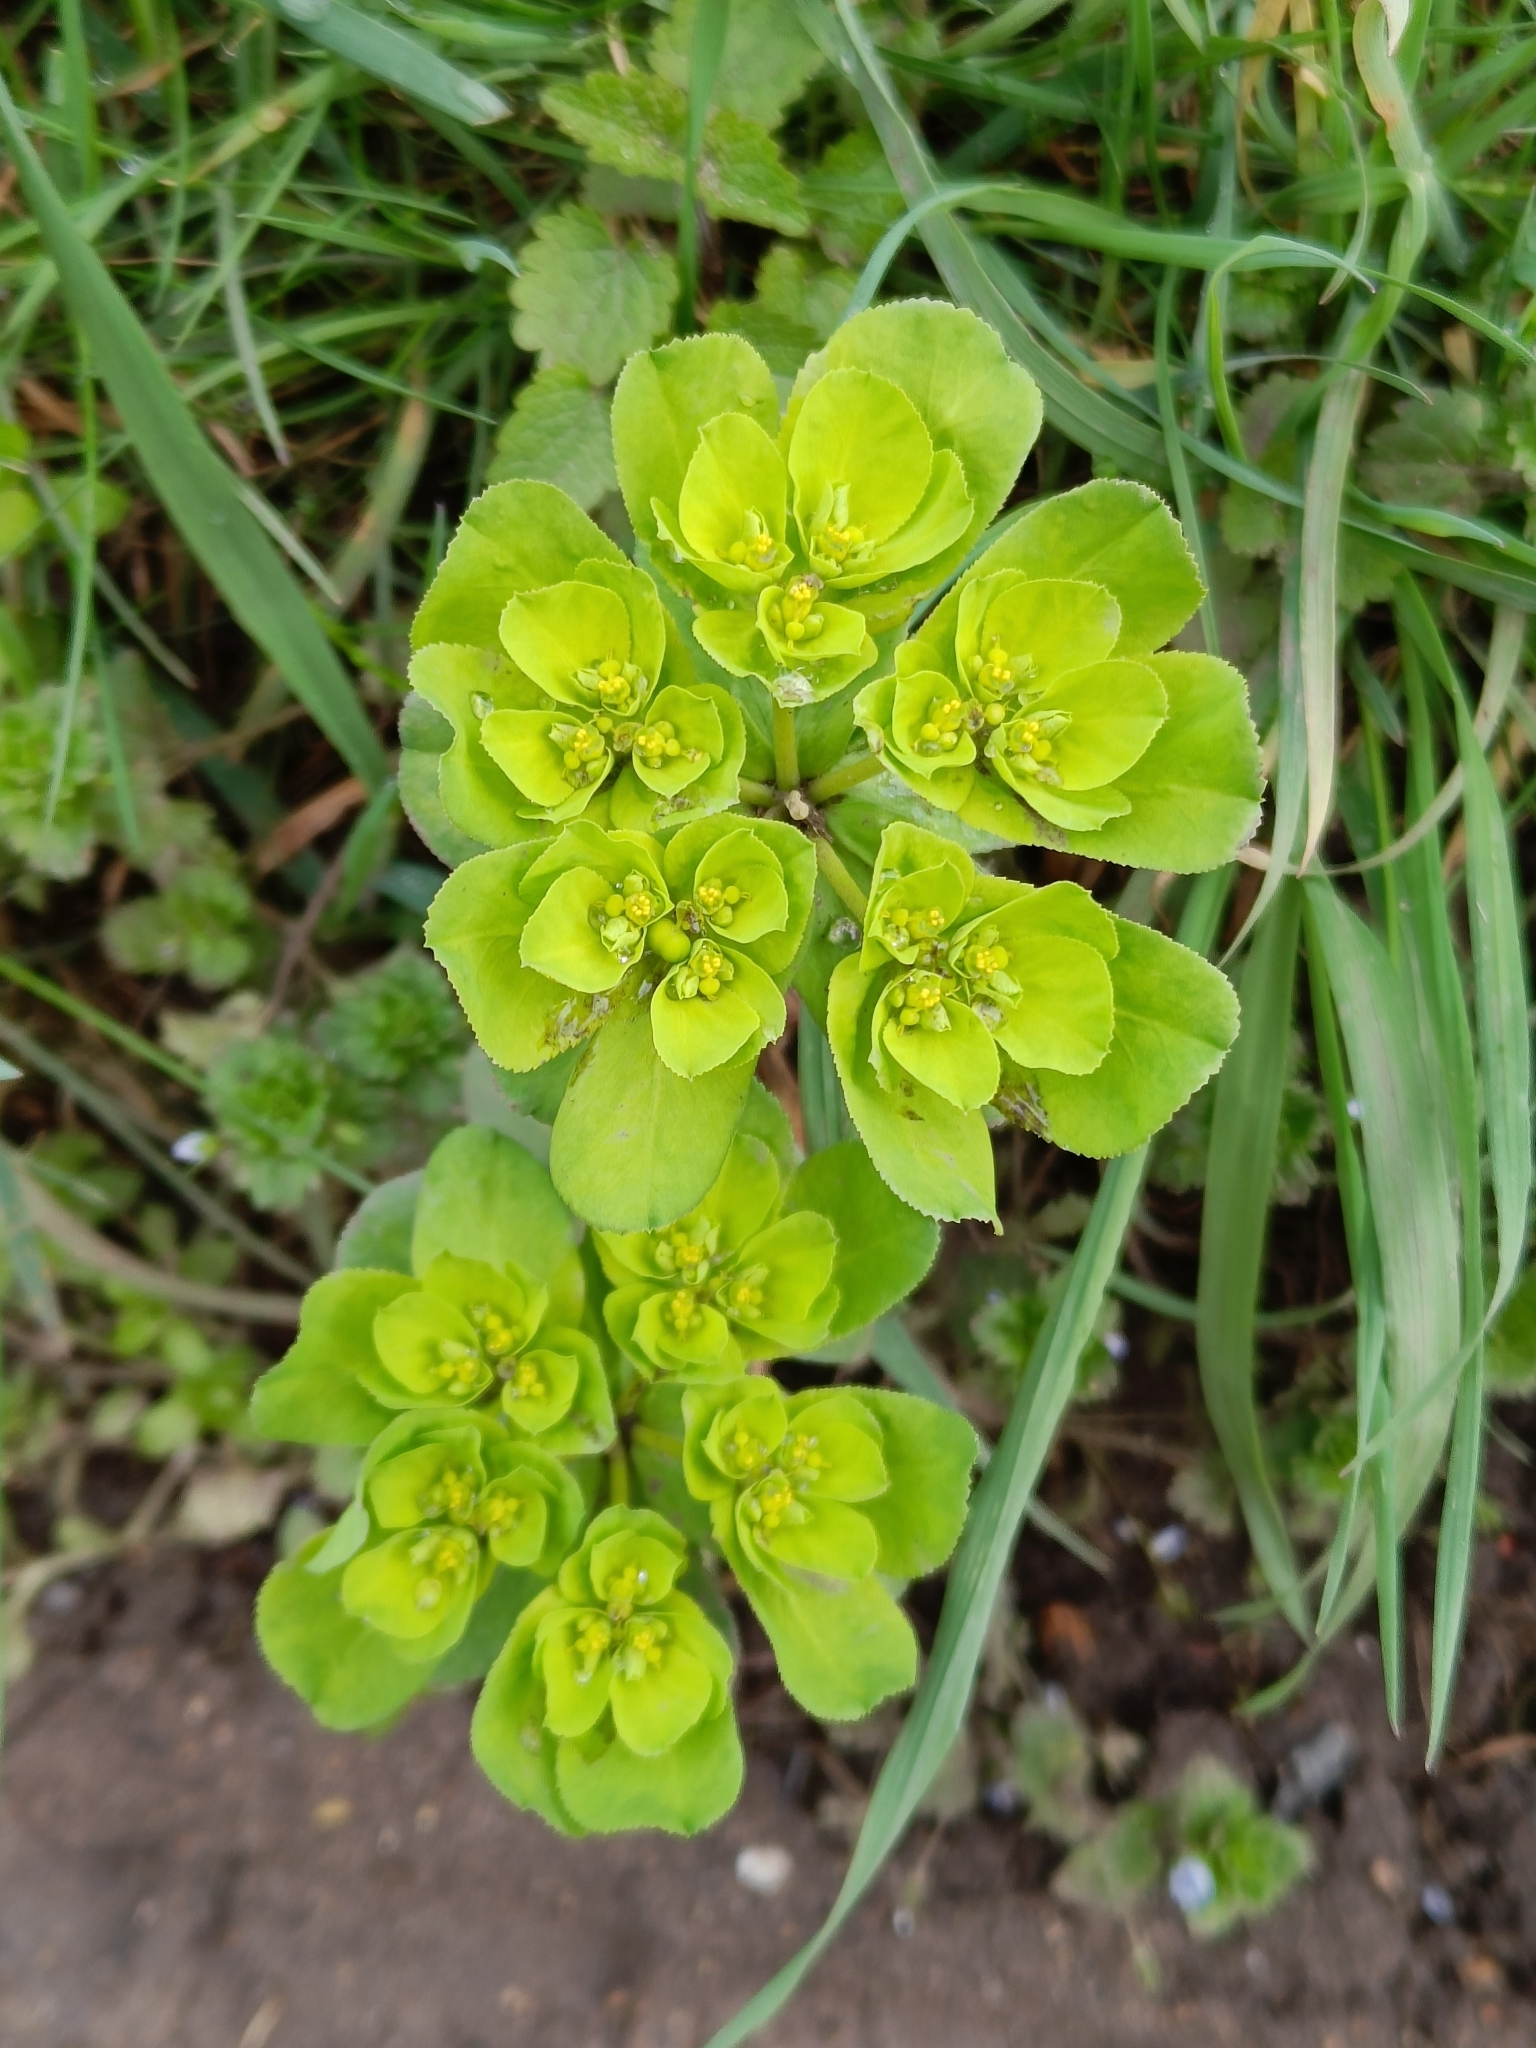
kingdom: Plantae
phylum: Tracheophyta
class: Magnoliopsida
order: Malpighiales
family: Euphorbiaceae
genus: Euphorbia
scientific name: Euphorbia helioscopia
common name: Sun spurge
